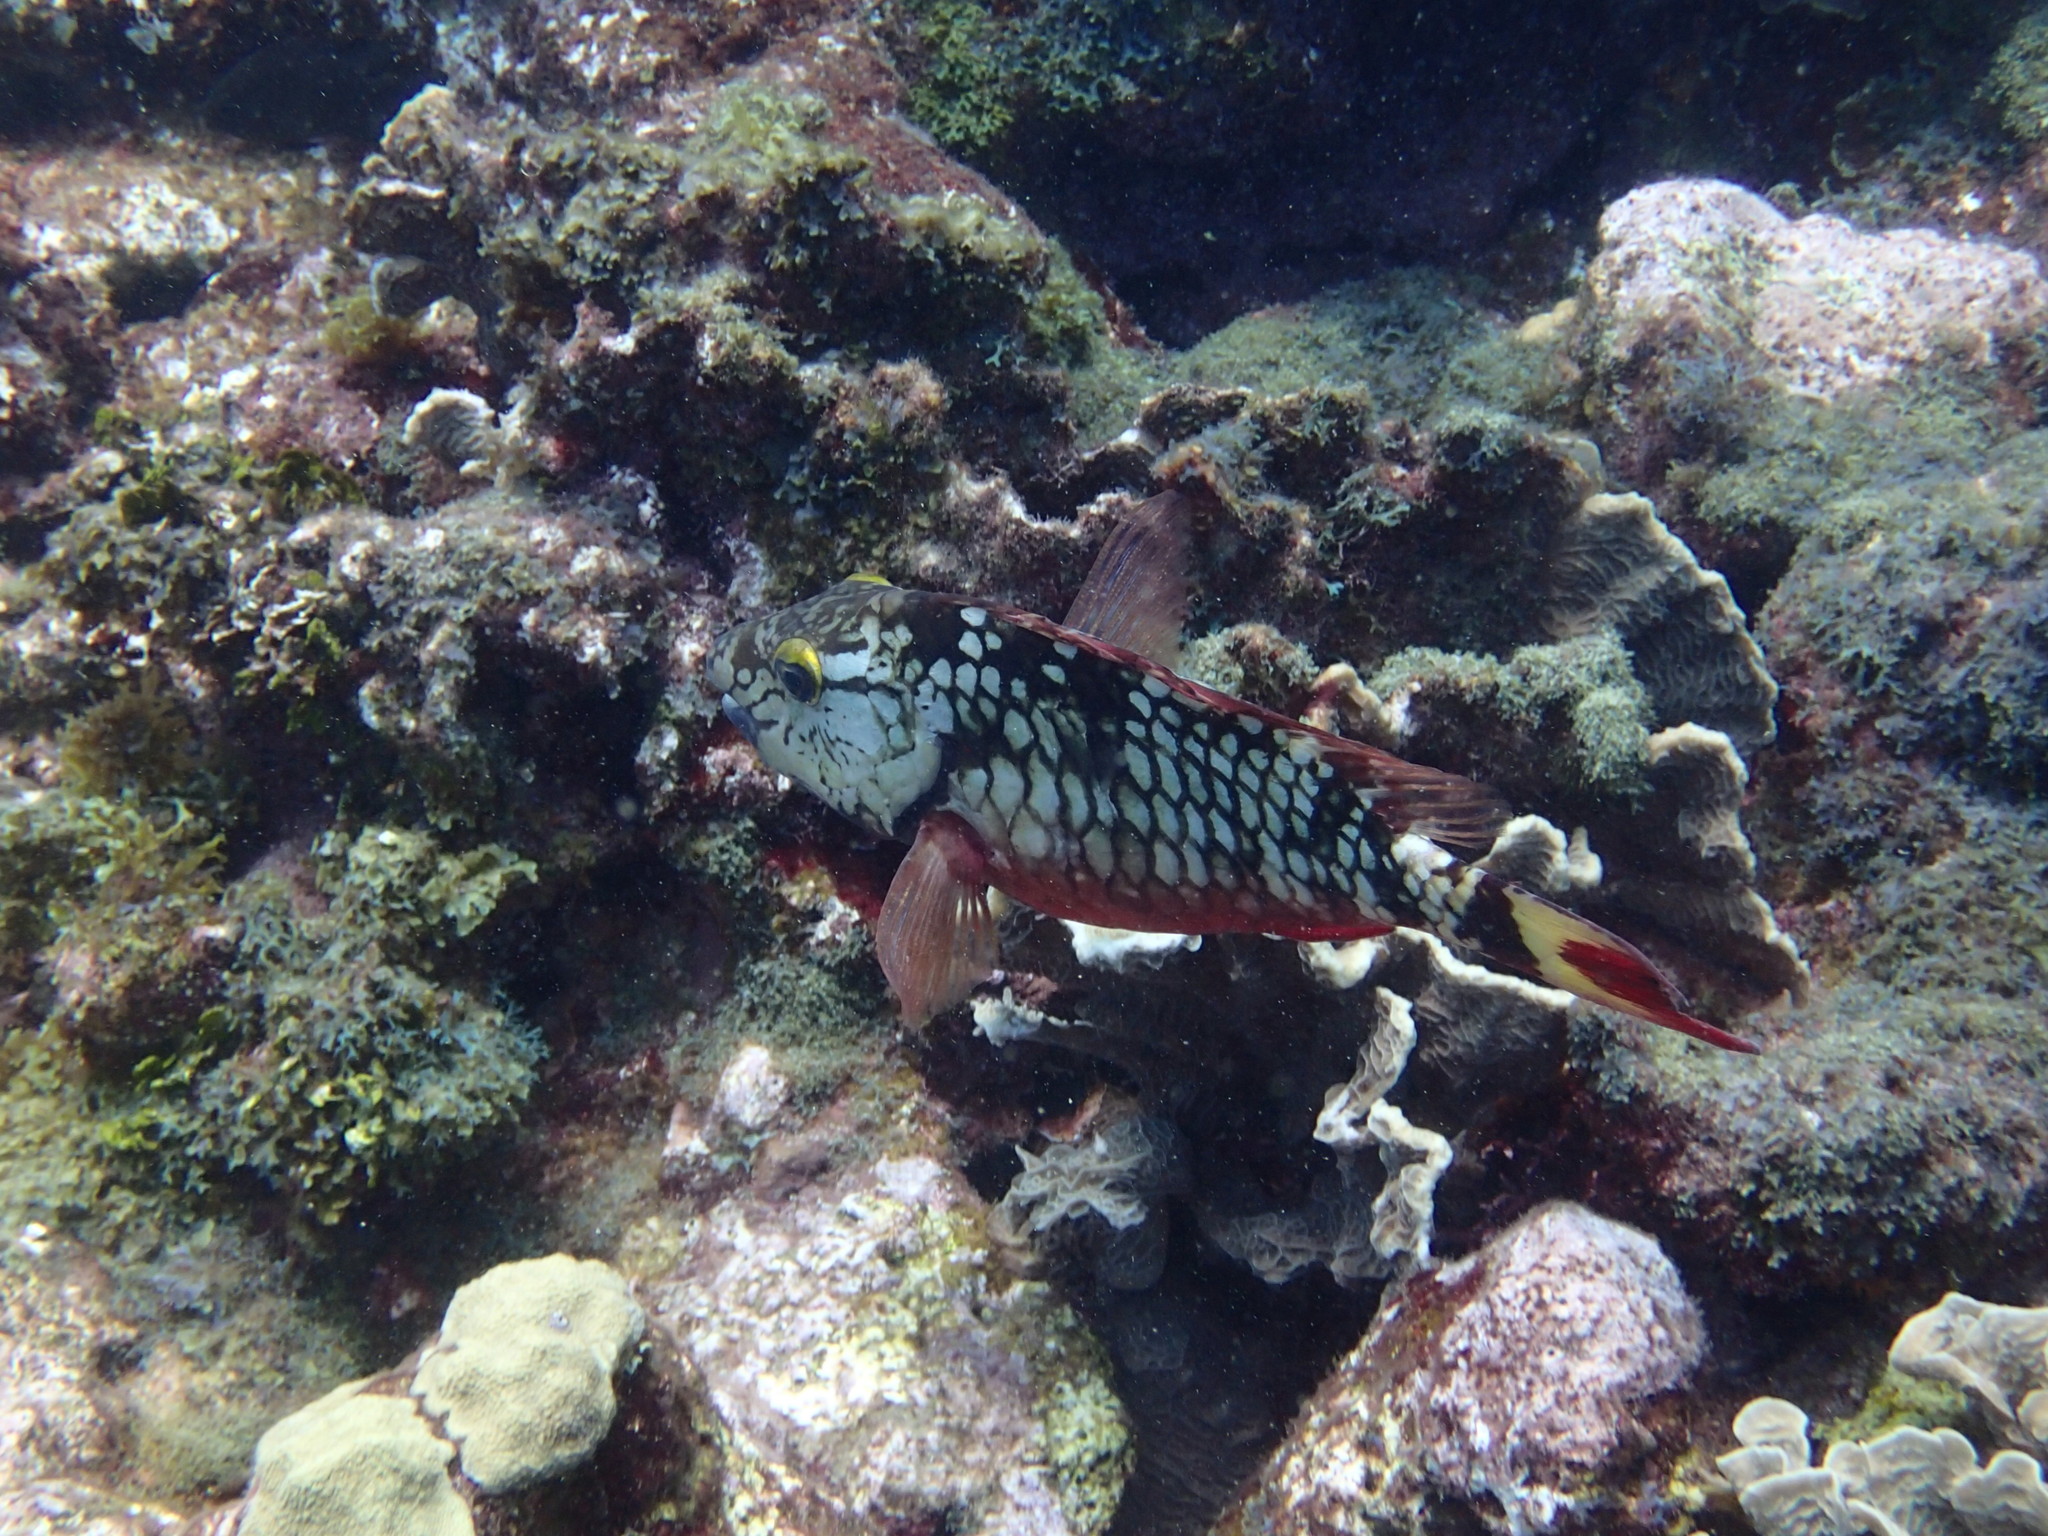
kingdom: Animalia
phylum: Chordata
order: Perciformes
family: Scaridae
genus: Sparisoma
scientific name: Sparisoma viride
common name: Stoplight parrotfish
